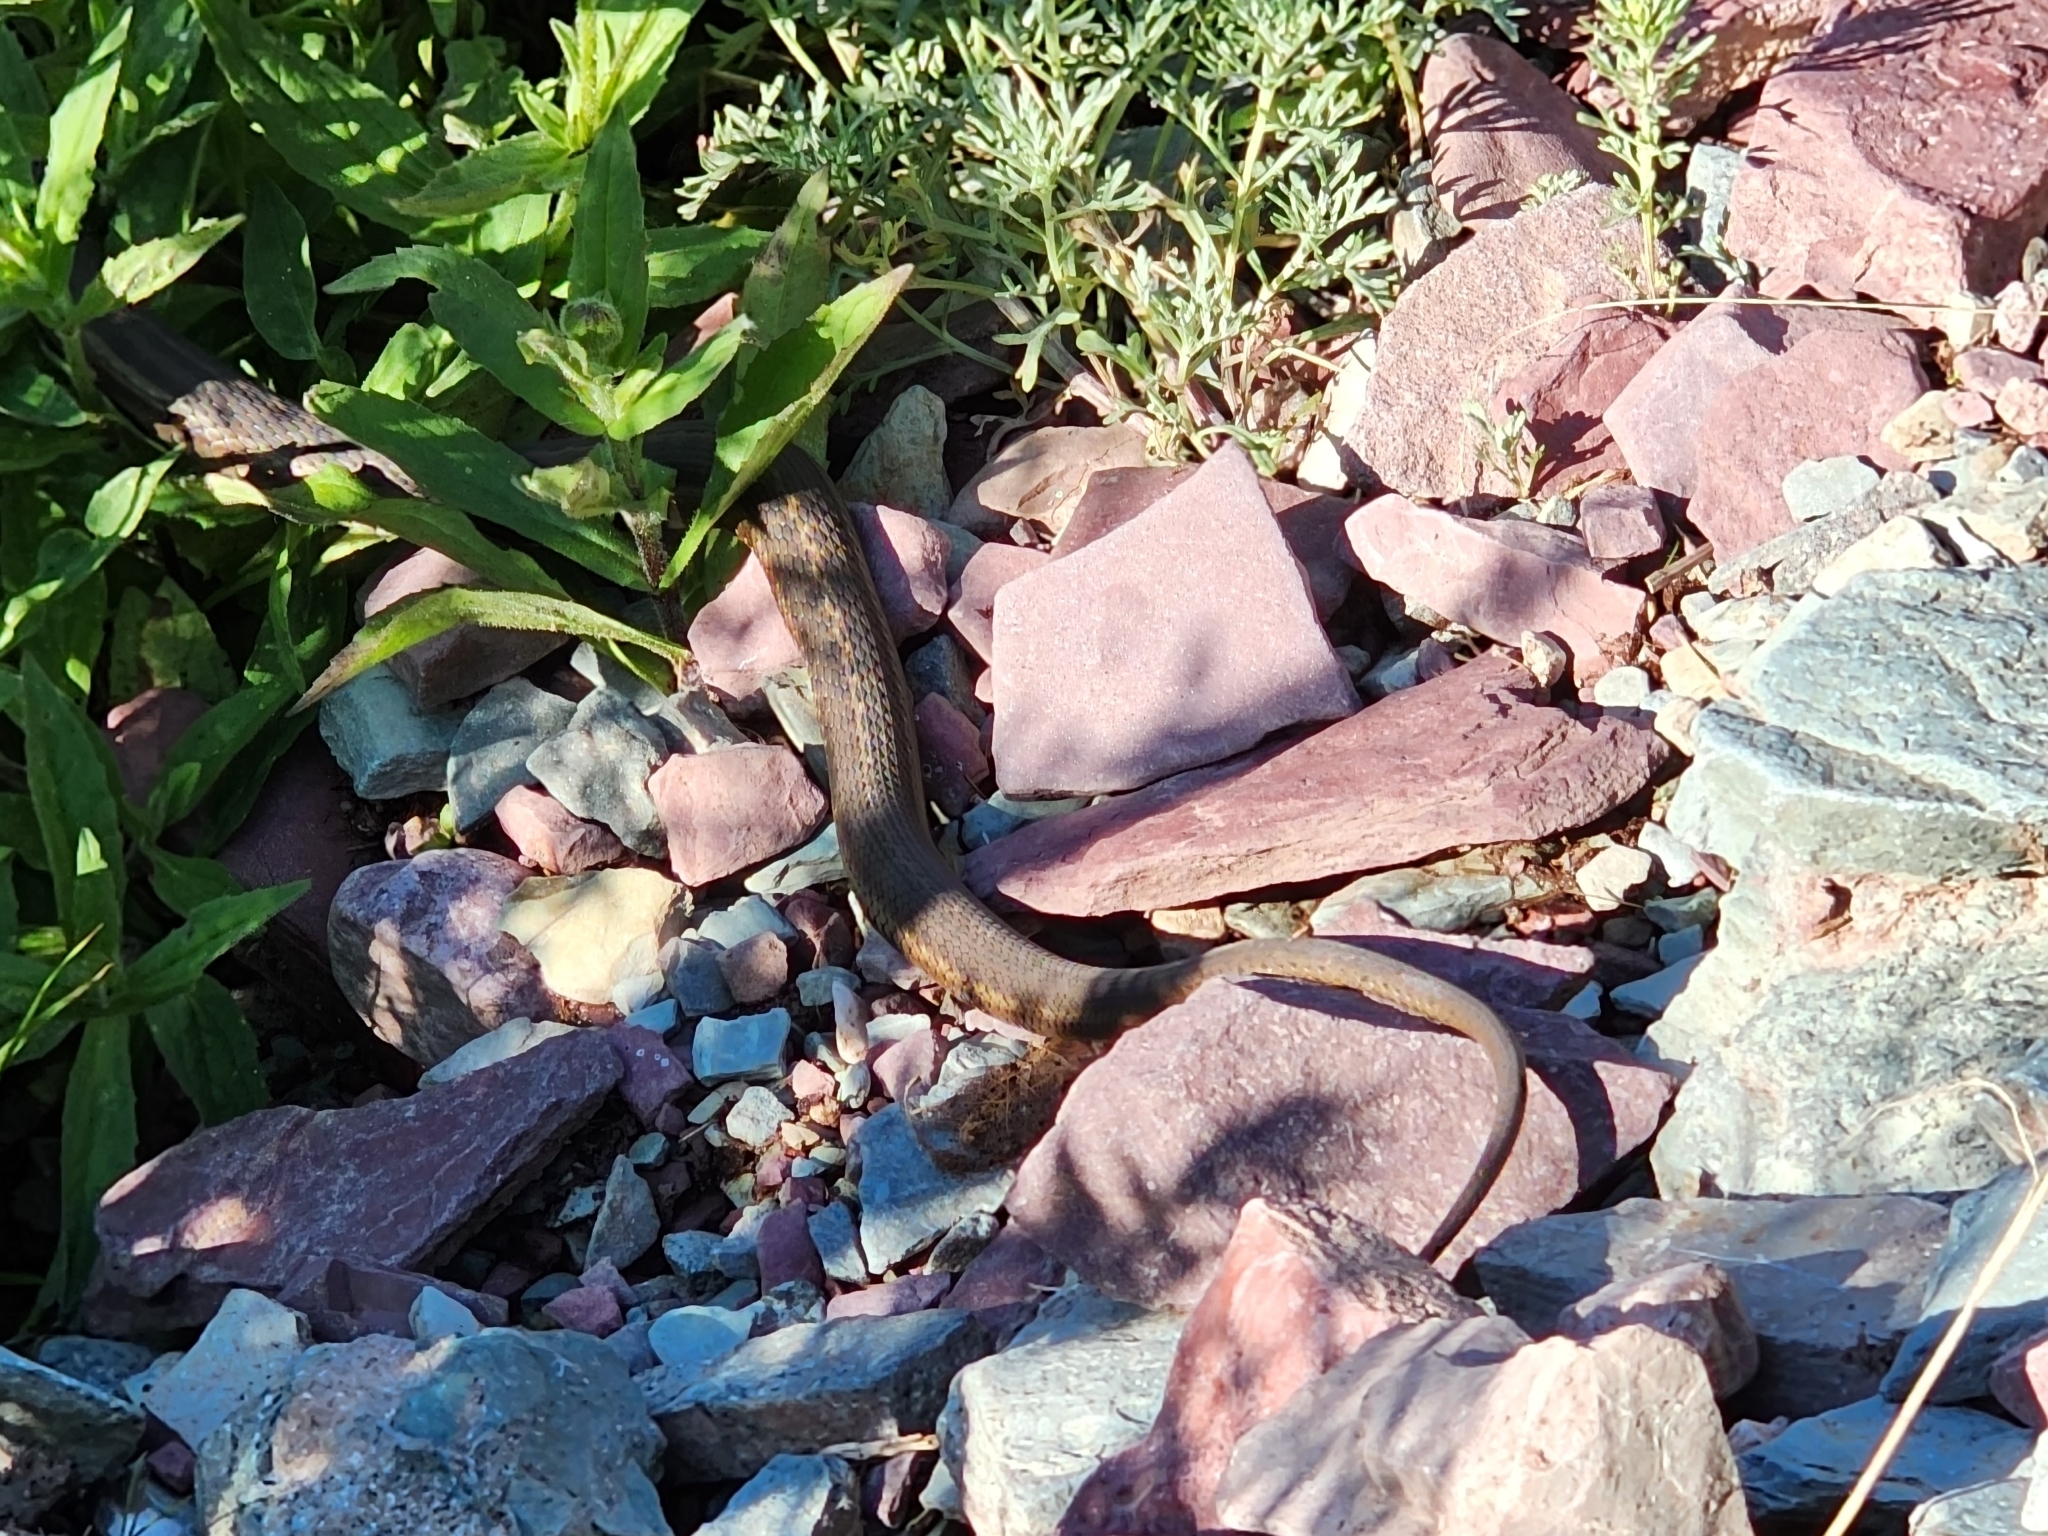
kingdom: Animalia
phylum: Chordata
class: Squamata
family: Colubridae
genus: Thamnophis
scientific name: Thamnophis elegans
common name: Western terrestrial garter snake
